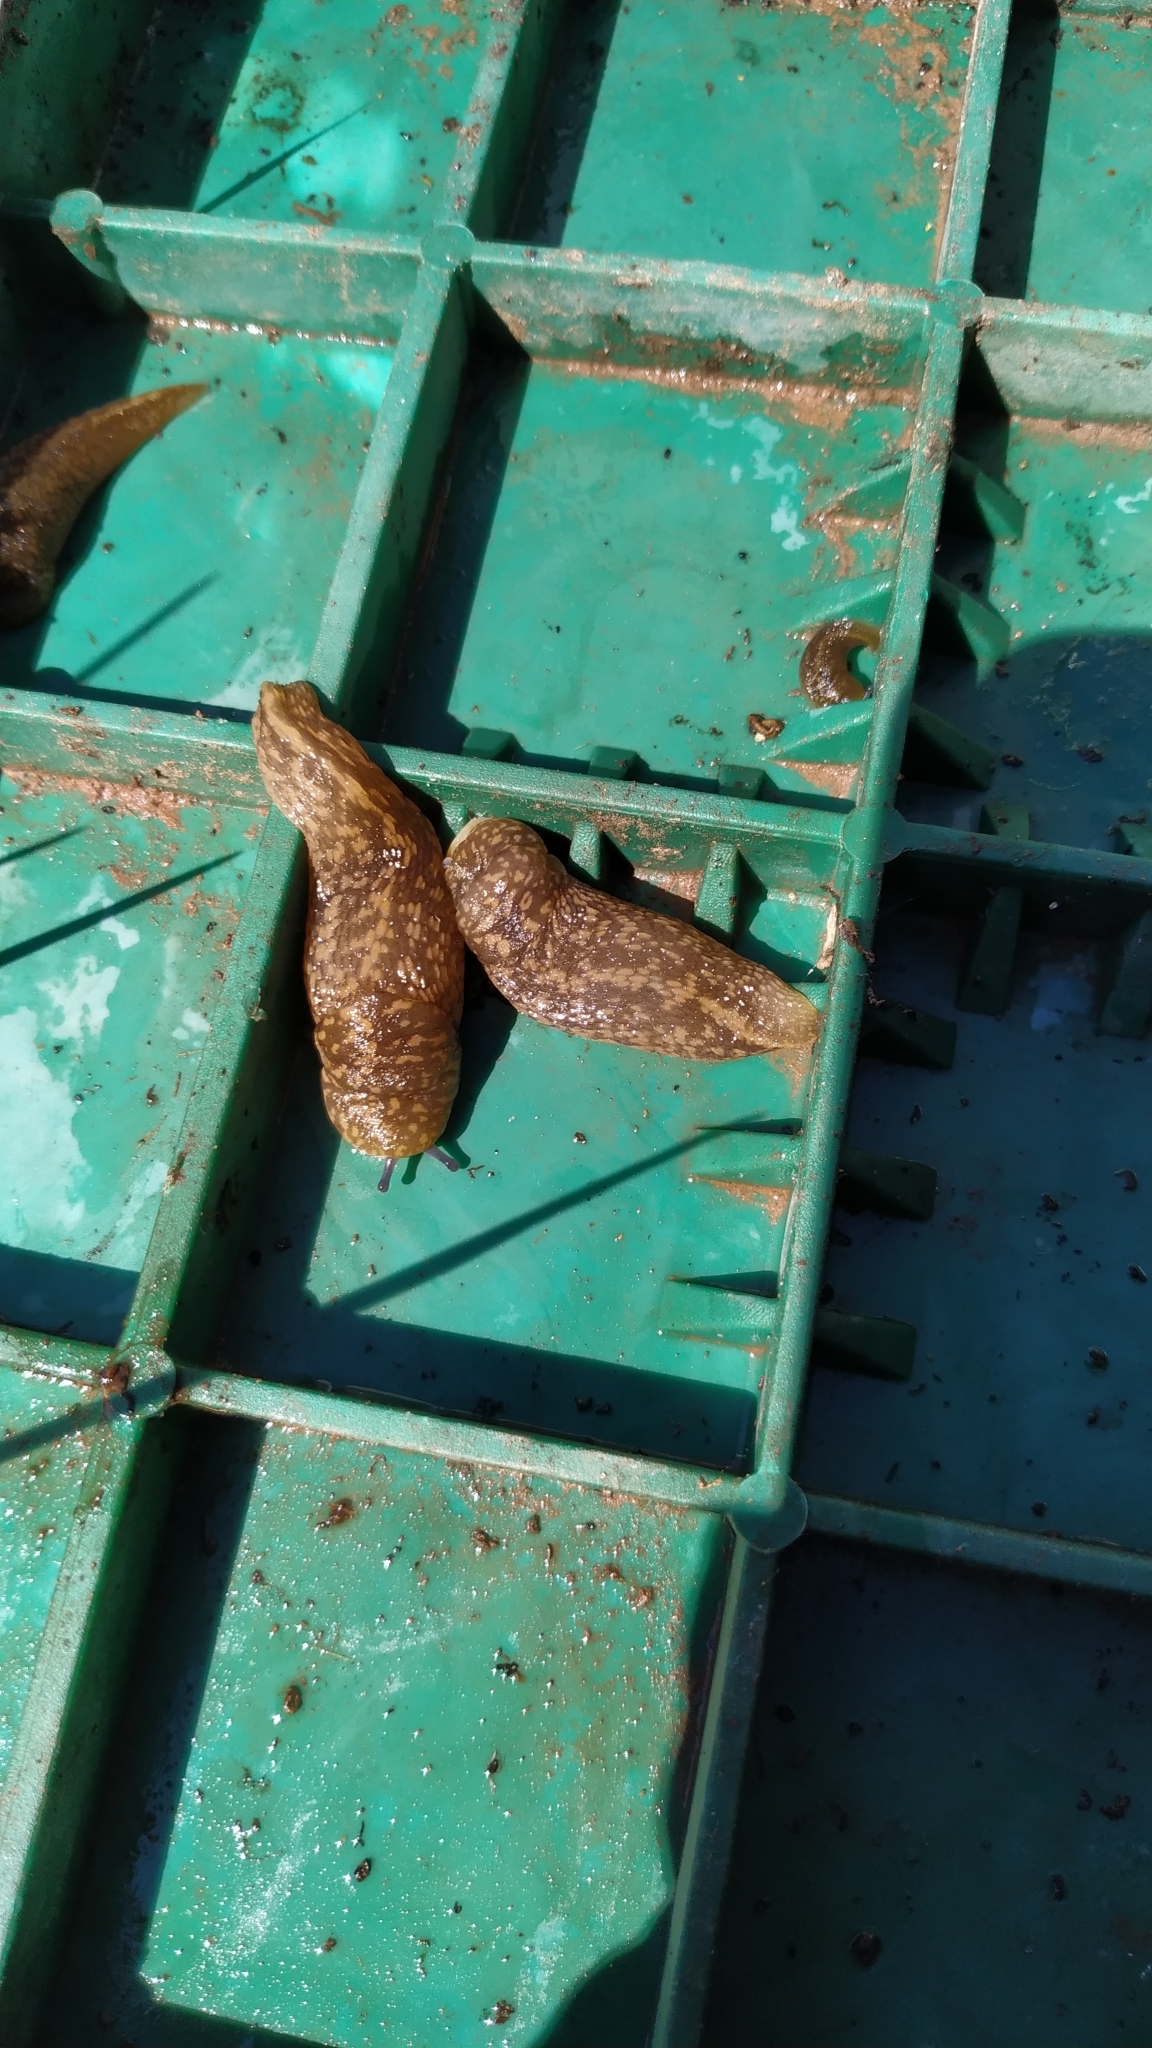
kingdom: Animalia
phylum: Mollusca
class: Gastropoda
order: Stylommatophora
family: Limacidae
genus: Limacus
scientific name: Limacus flavus
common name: Yellow gardenslug
